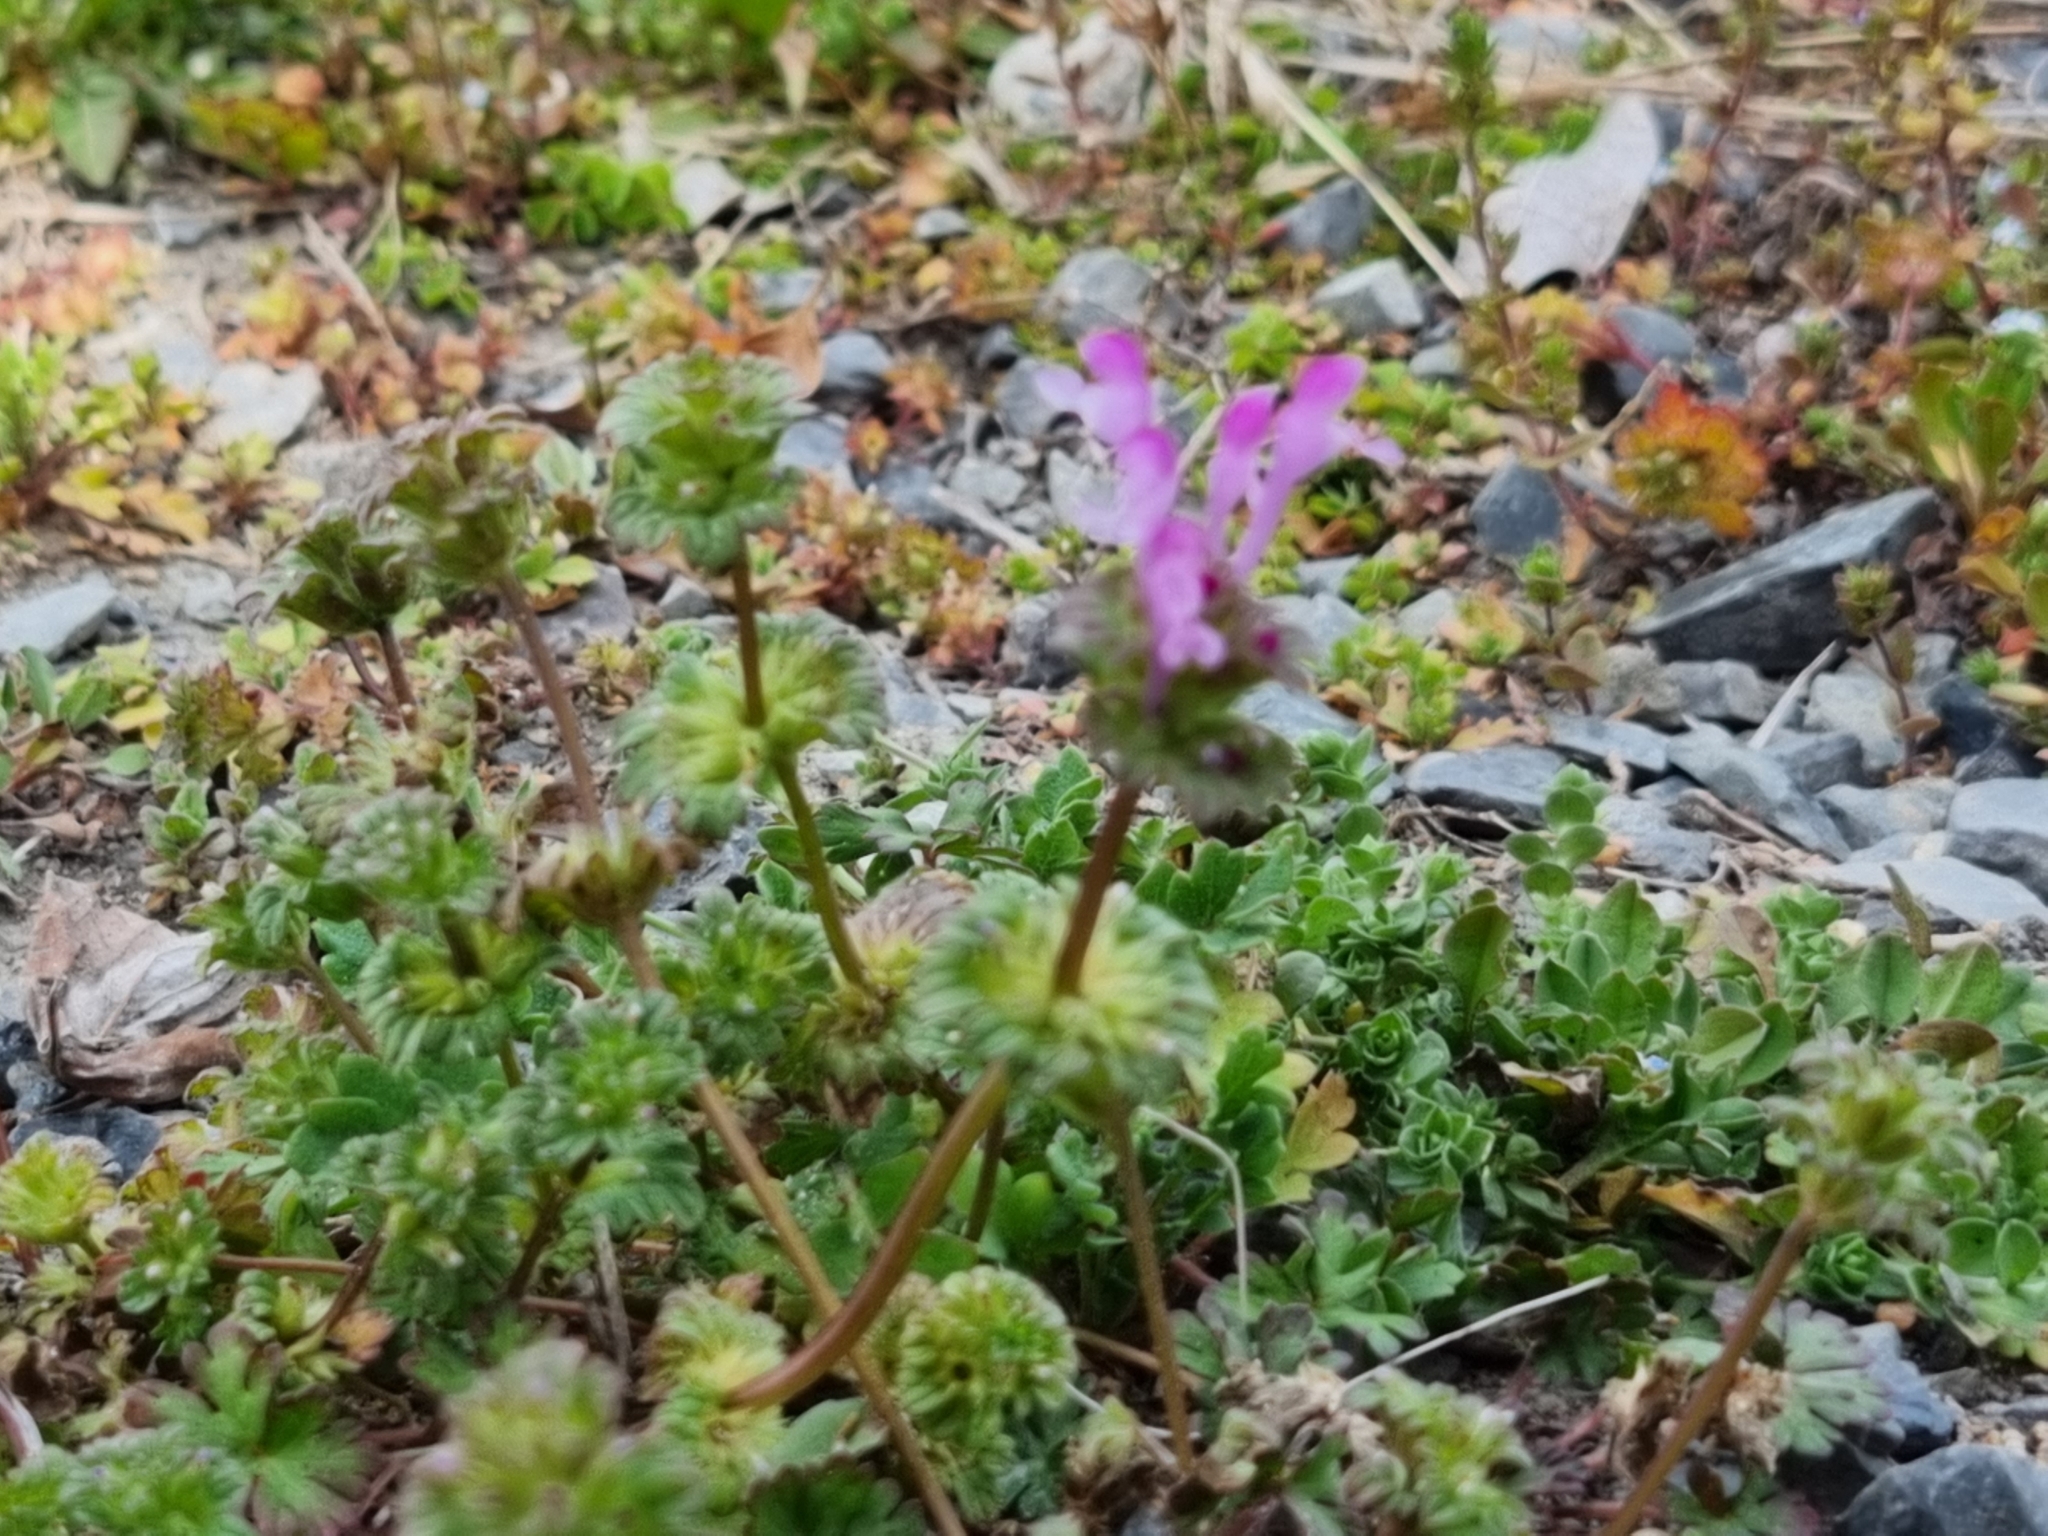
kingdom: Plantae
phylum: Tracheophyta
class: Magnoliopsida
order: Lamiales
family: Lamiaceae
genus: Lamium
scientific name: Lamium amplexicaule
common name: Henbit dead-nettle
